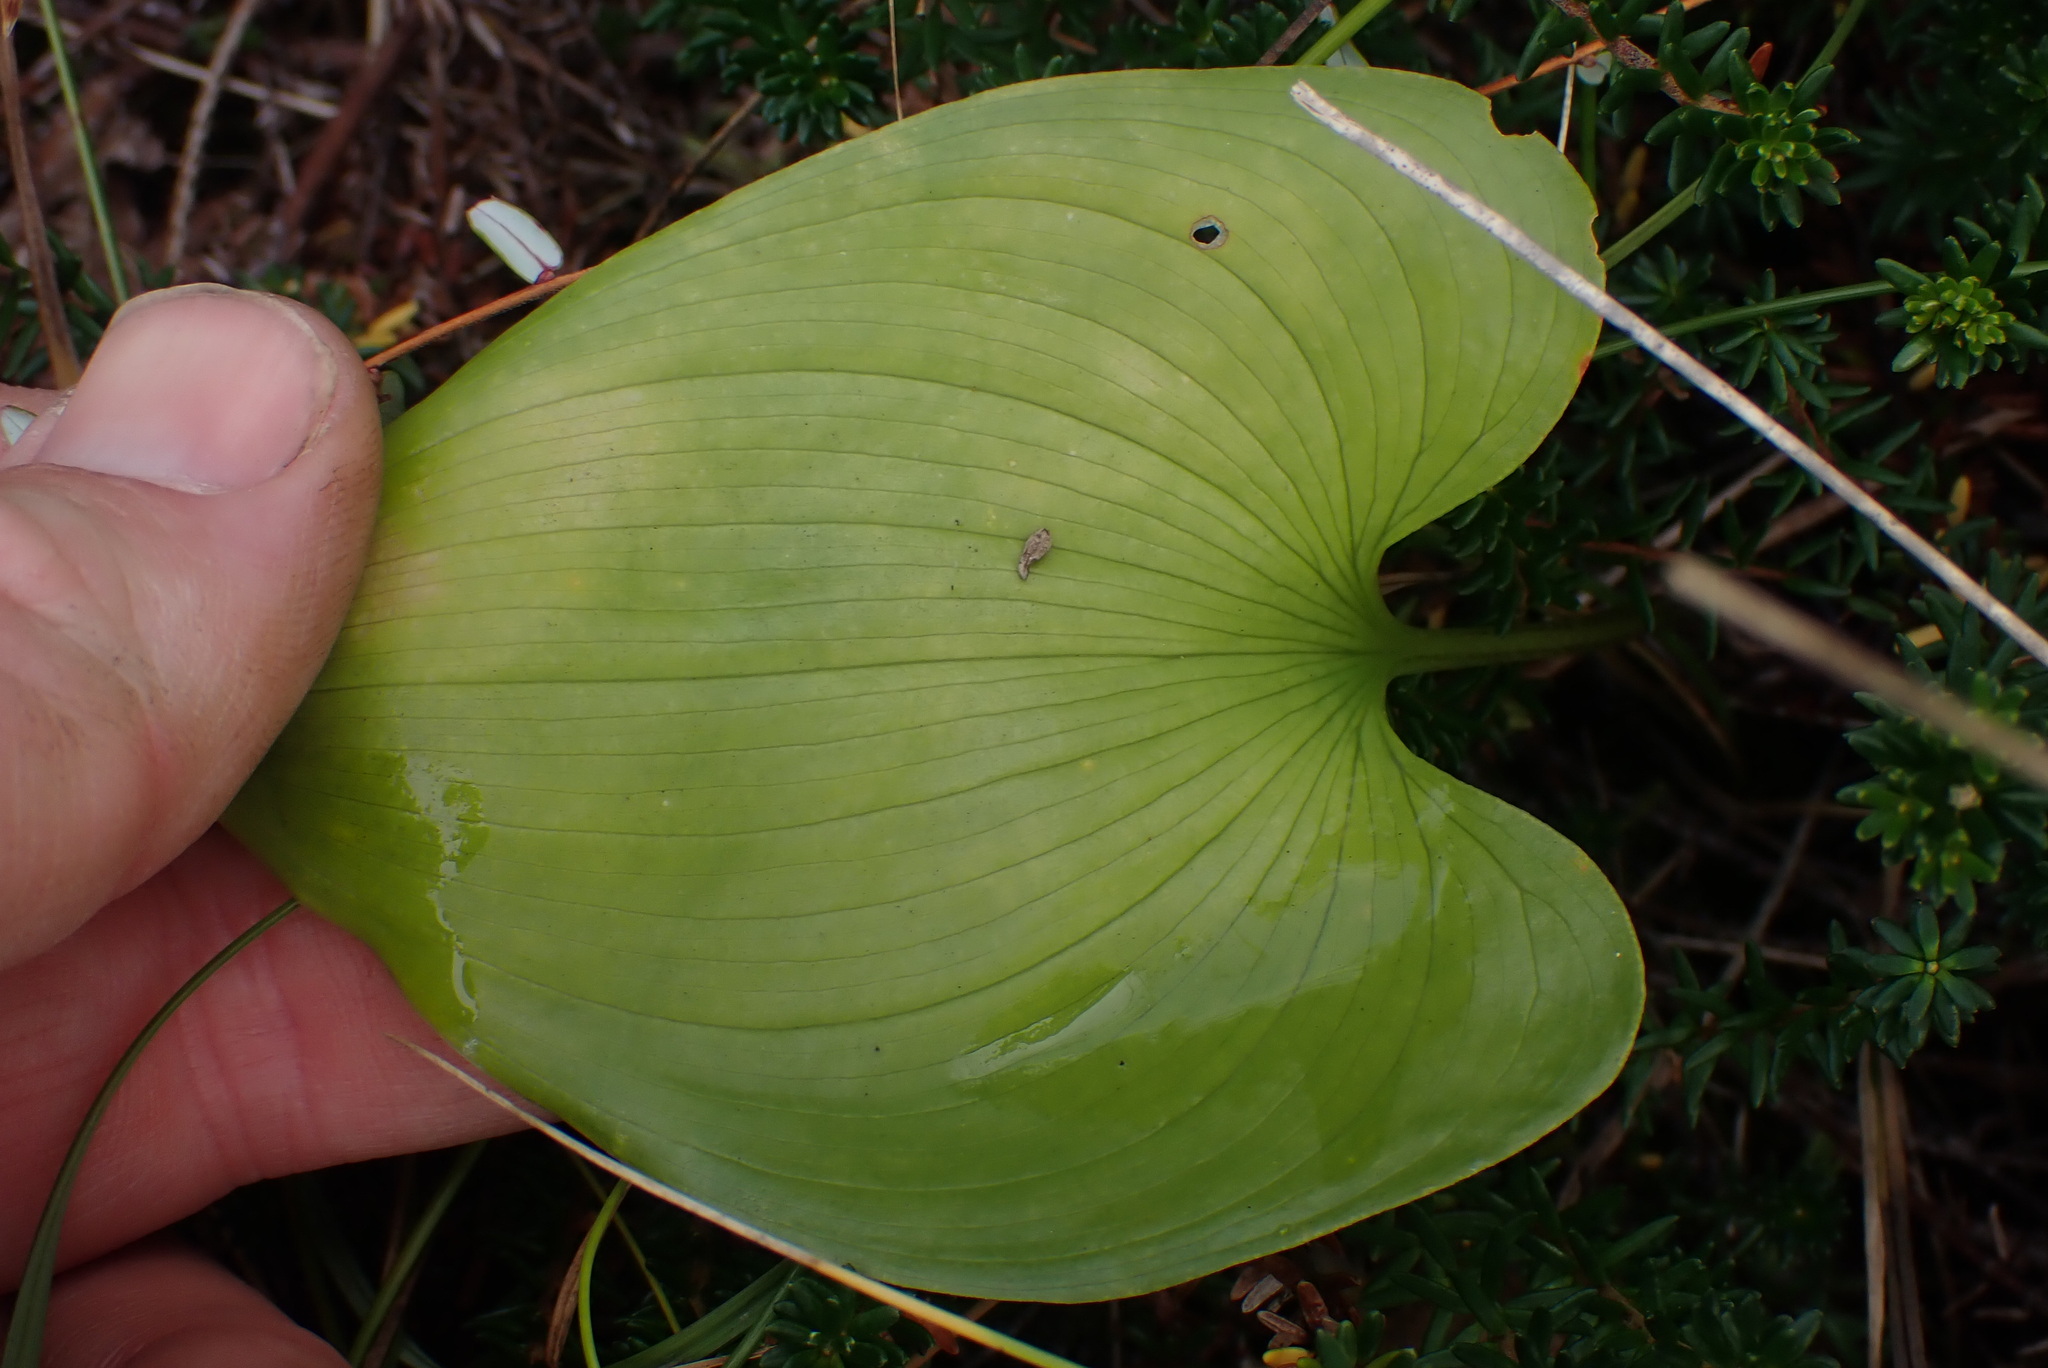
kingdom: Plantae
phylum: Tracheophyta
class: Liliopsida
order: Asparagales
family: Asparagaceae
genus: Maianthemum
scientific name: Maianthemum dilatatum
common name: False lily-of-the-valley
